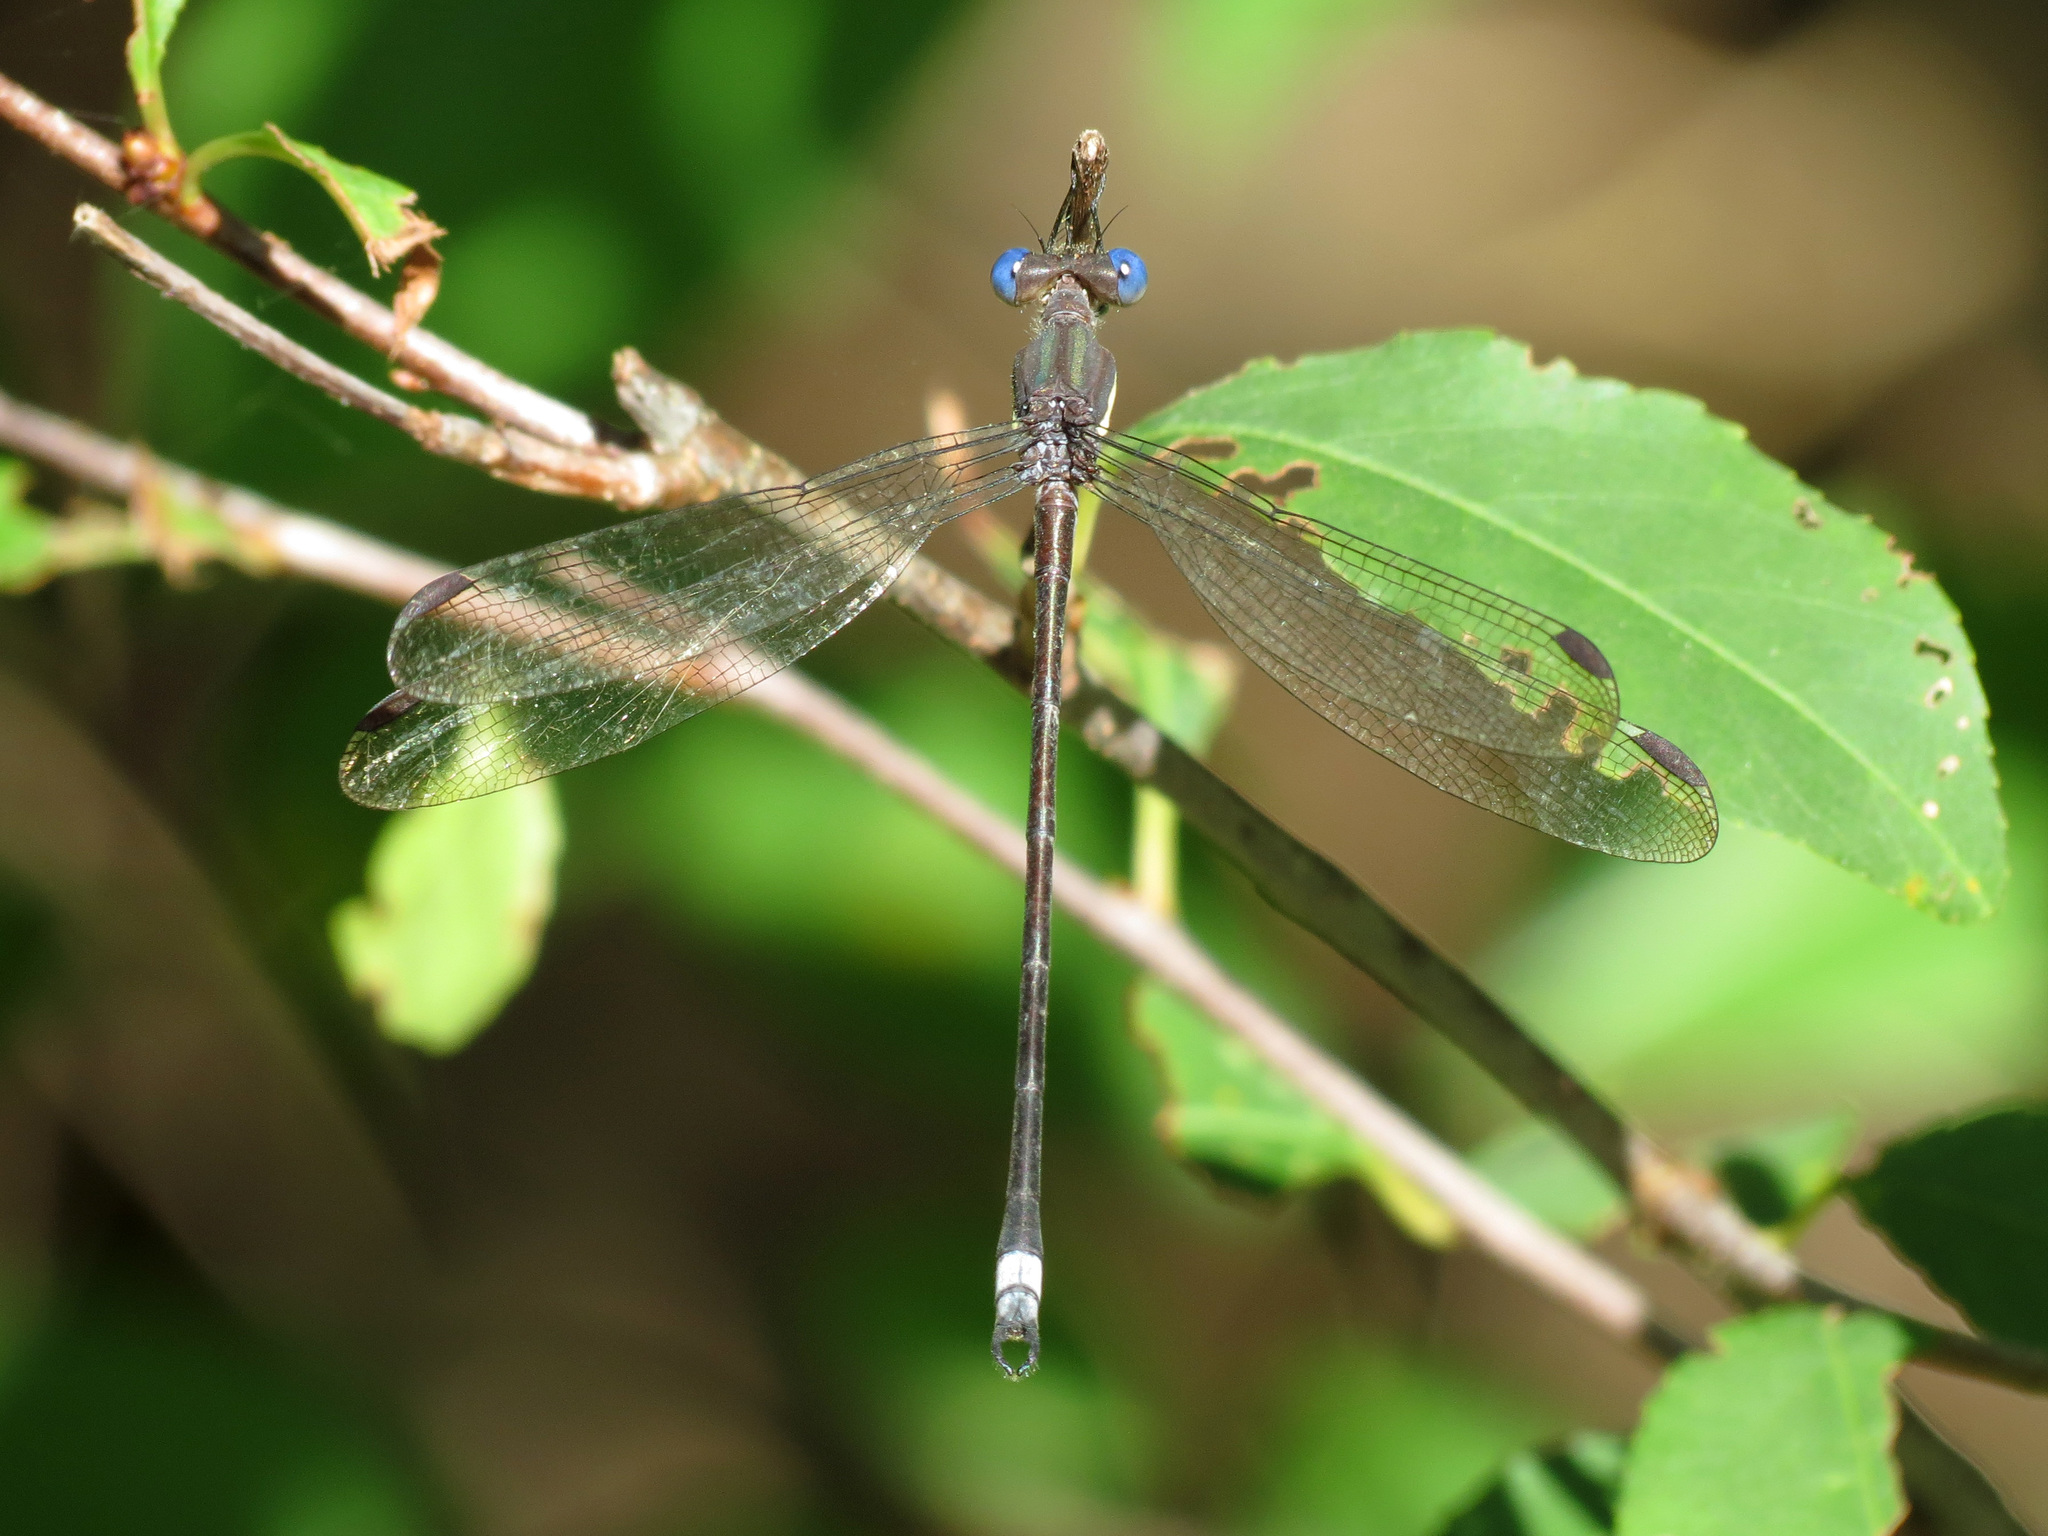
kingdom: Animalia
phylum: Arthropoda
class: Insecta
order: Odonata
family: Lestidae
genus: Archilestes
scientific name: Archilestes grandis
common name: Great spreadwing
